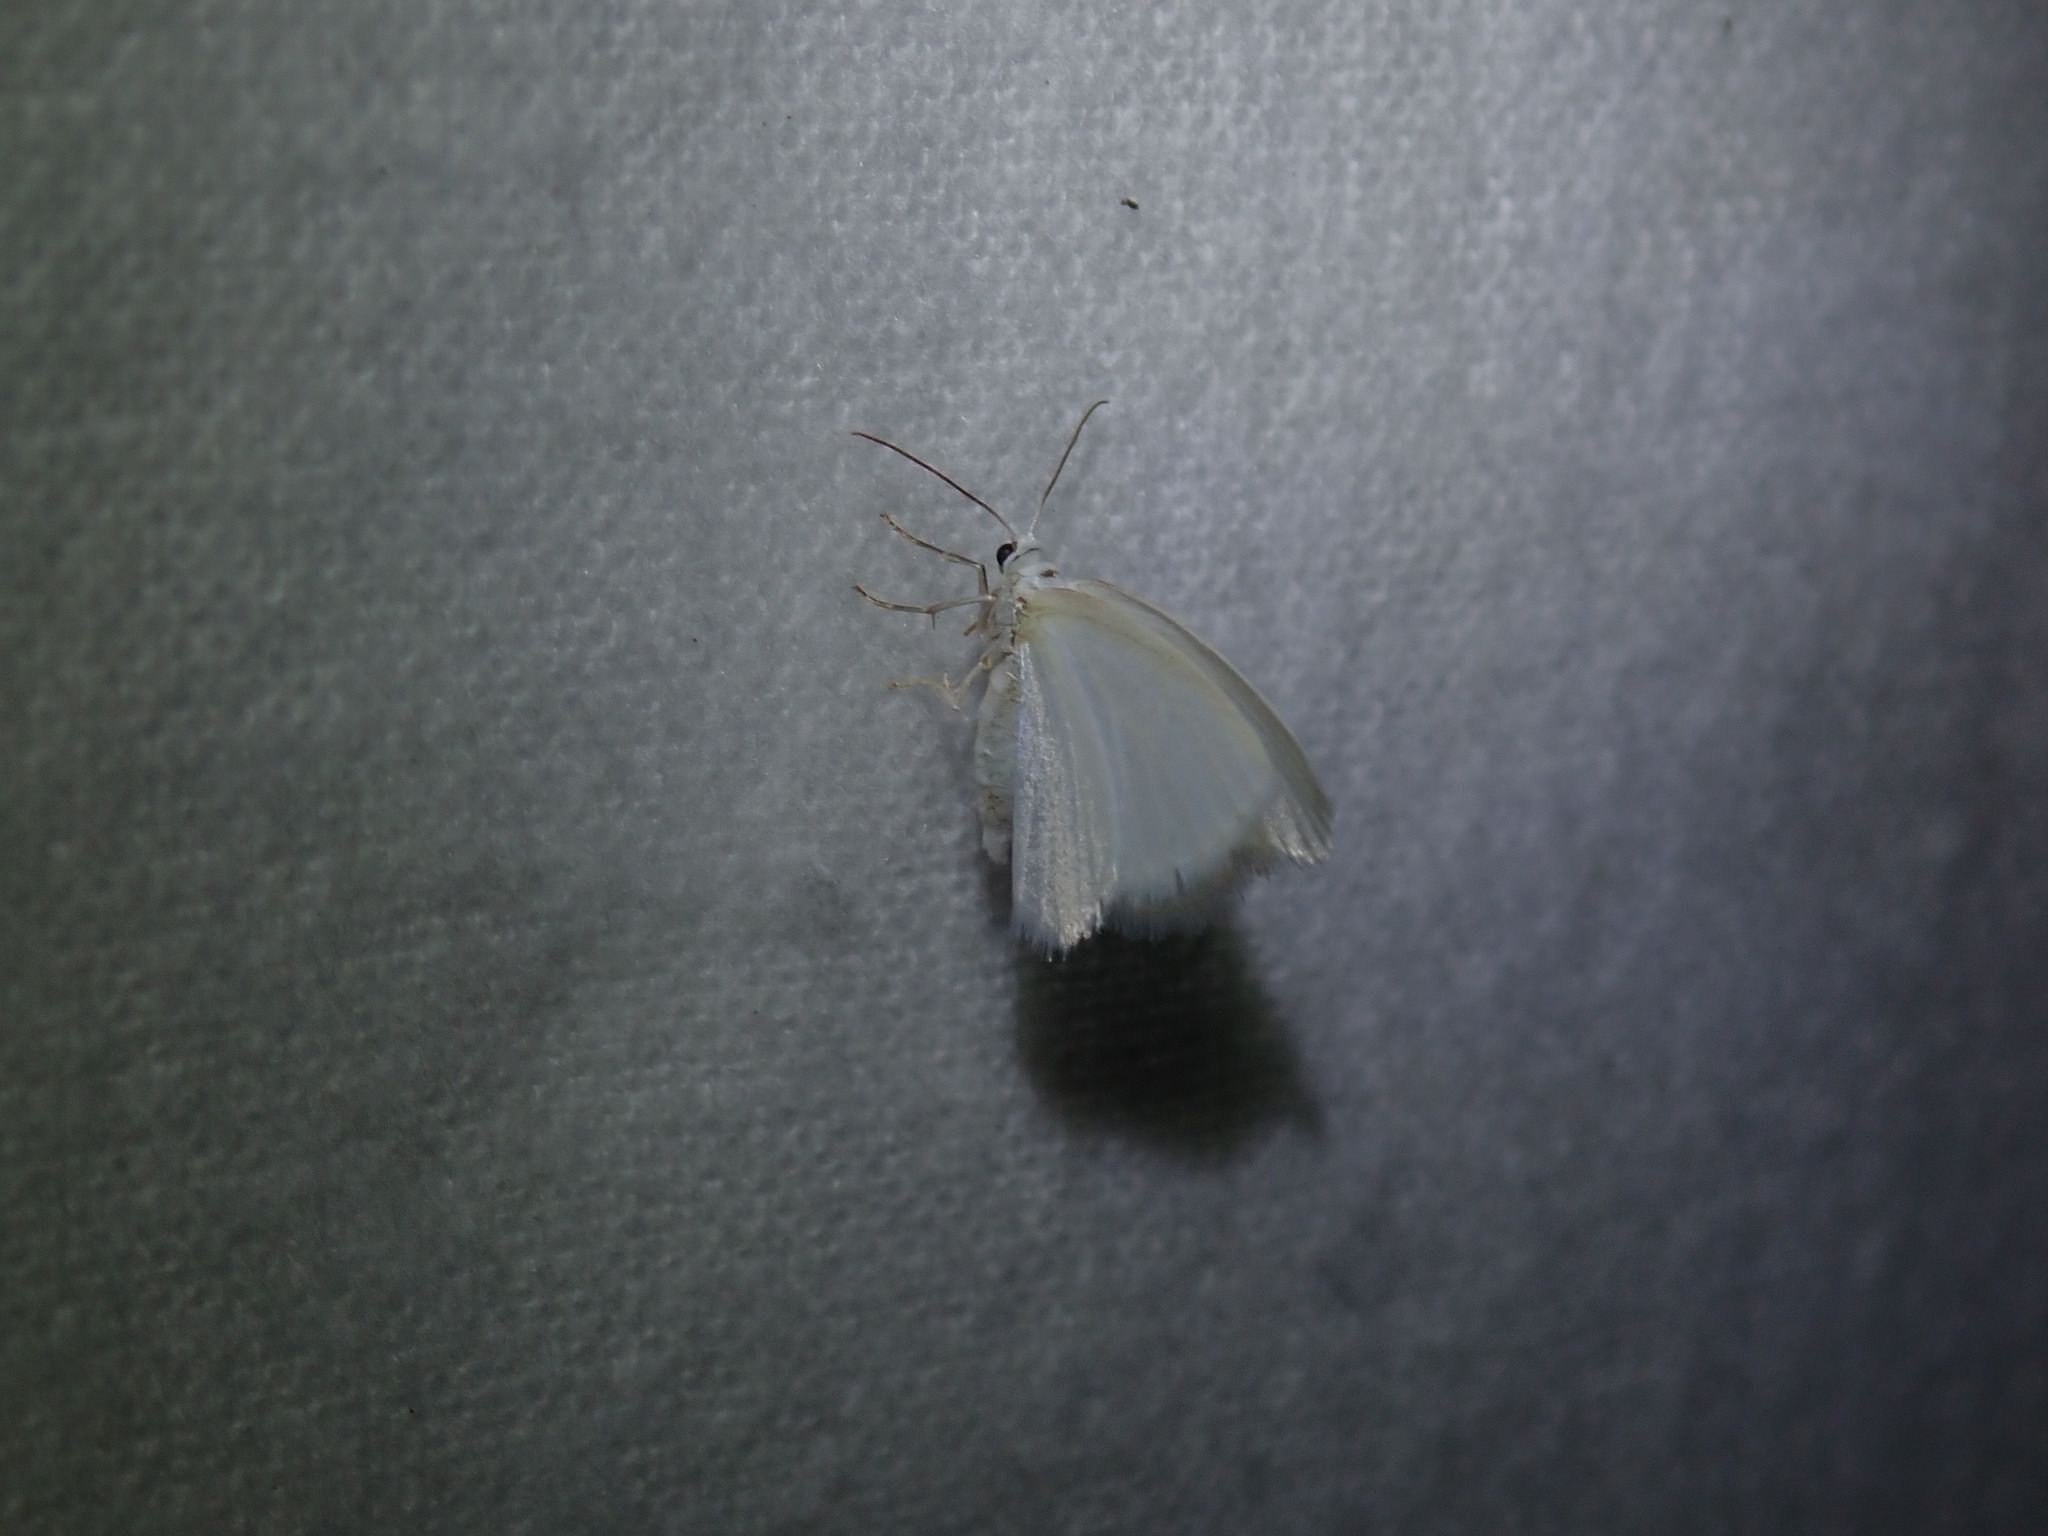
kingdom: Animalia
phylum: Arthropoda
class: Insecta
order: Lepidoptera
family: Geometridae
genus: Lomographa
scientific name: Lomographa vestaliata
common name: White spring moth
